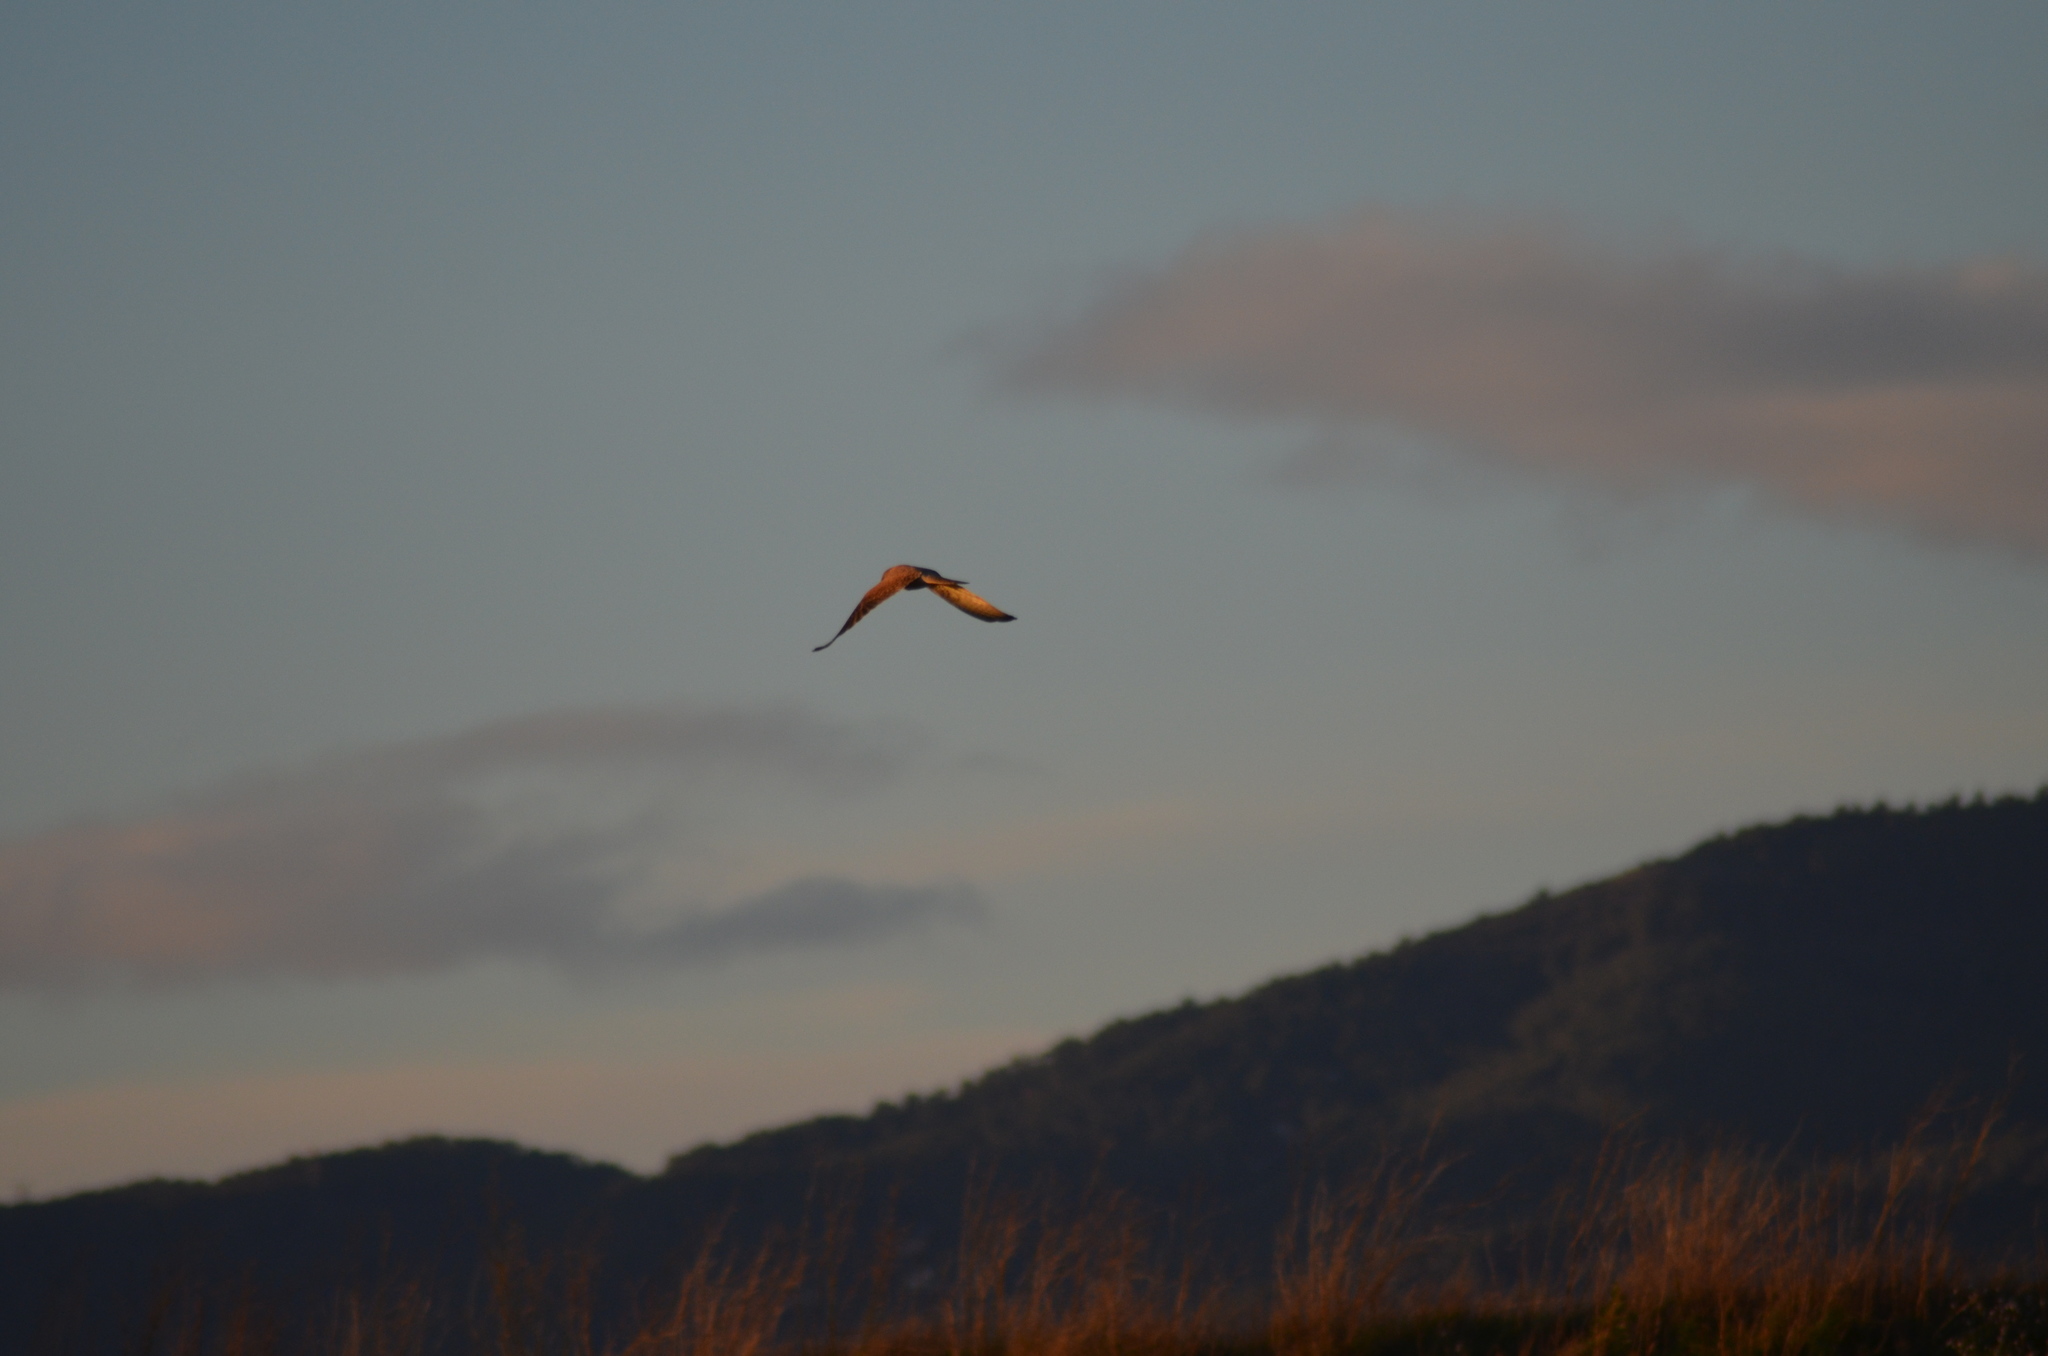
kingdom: Animalia
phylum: Chordata
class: Aves
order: Falconiformes
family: Falconidae
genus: Falco
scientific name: Falco tinnunculus
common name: Common kestrel
